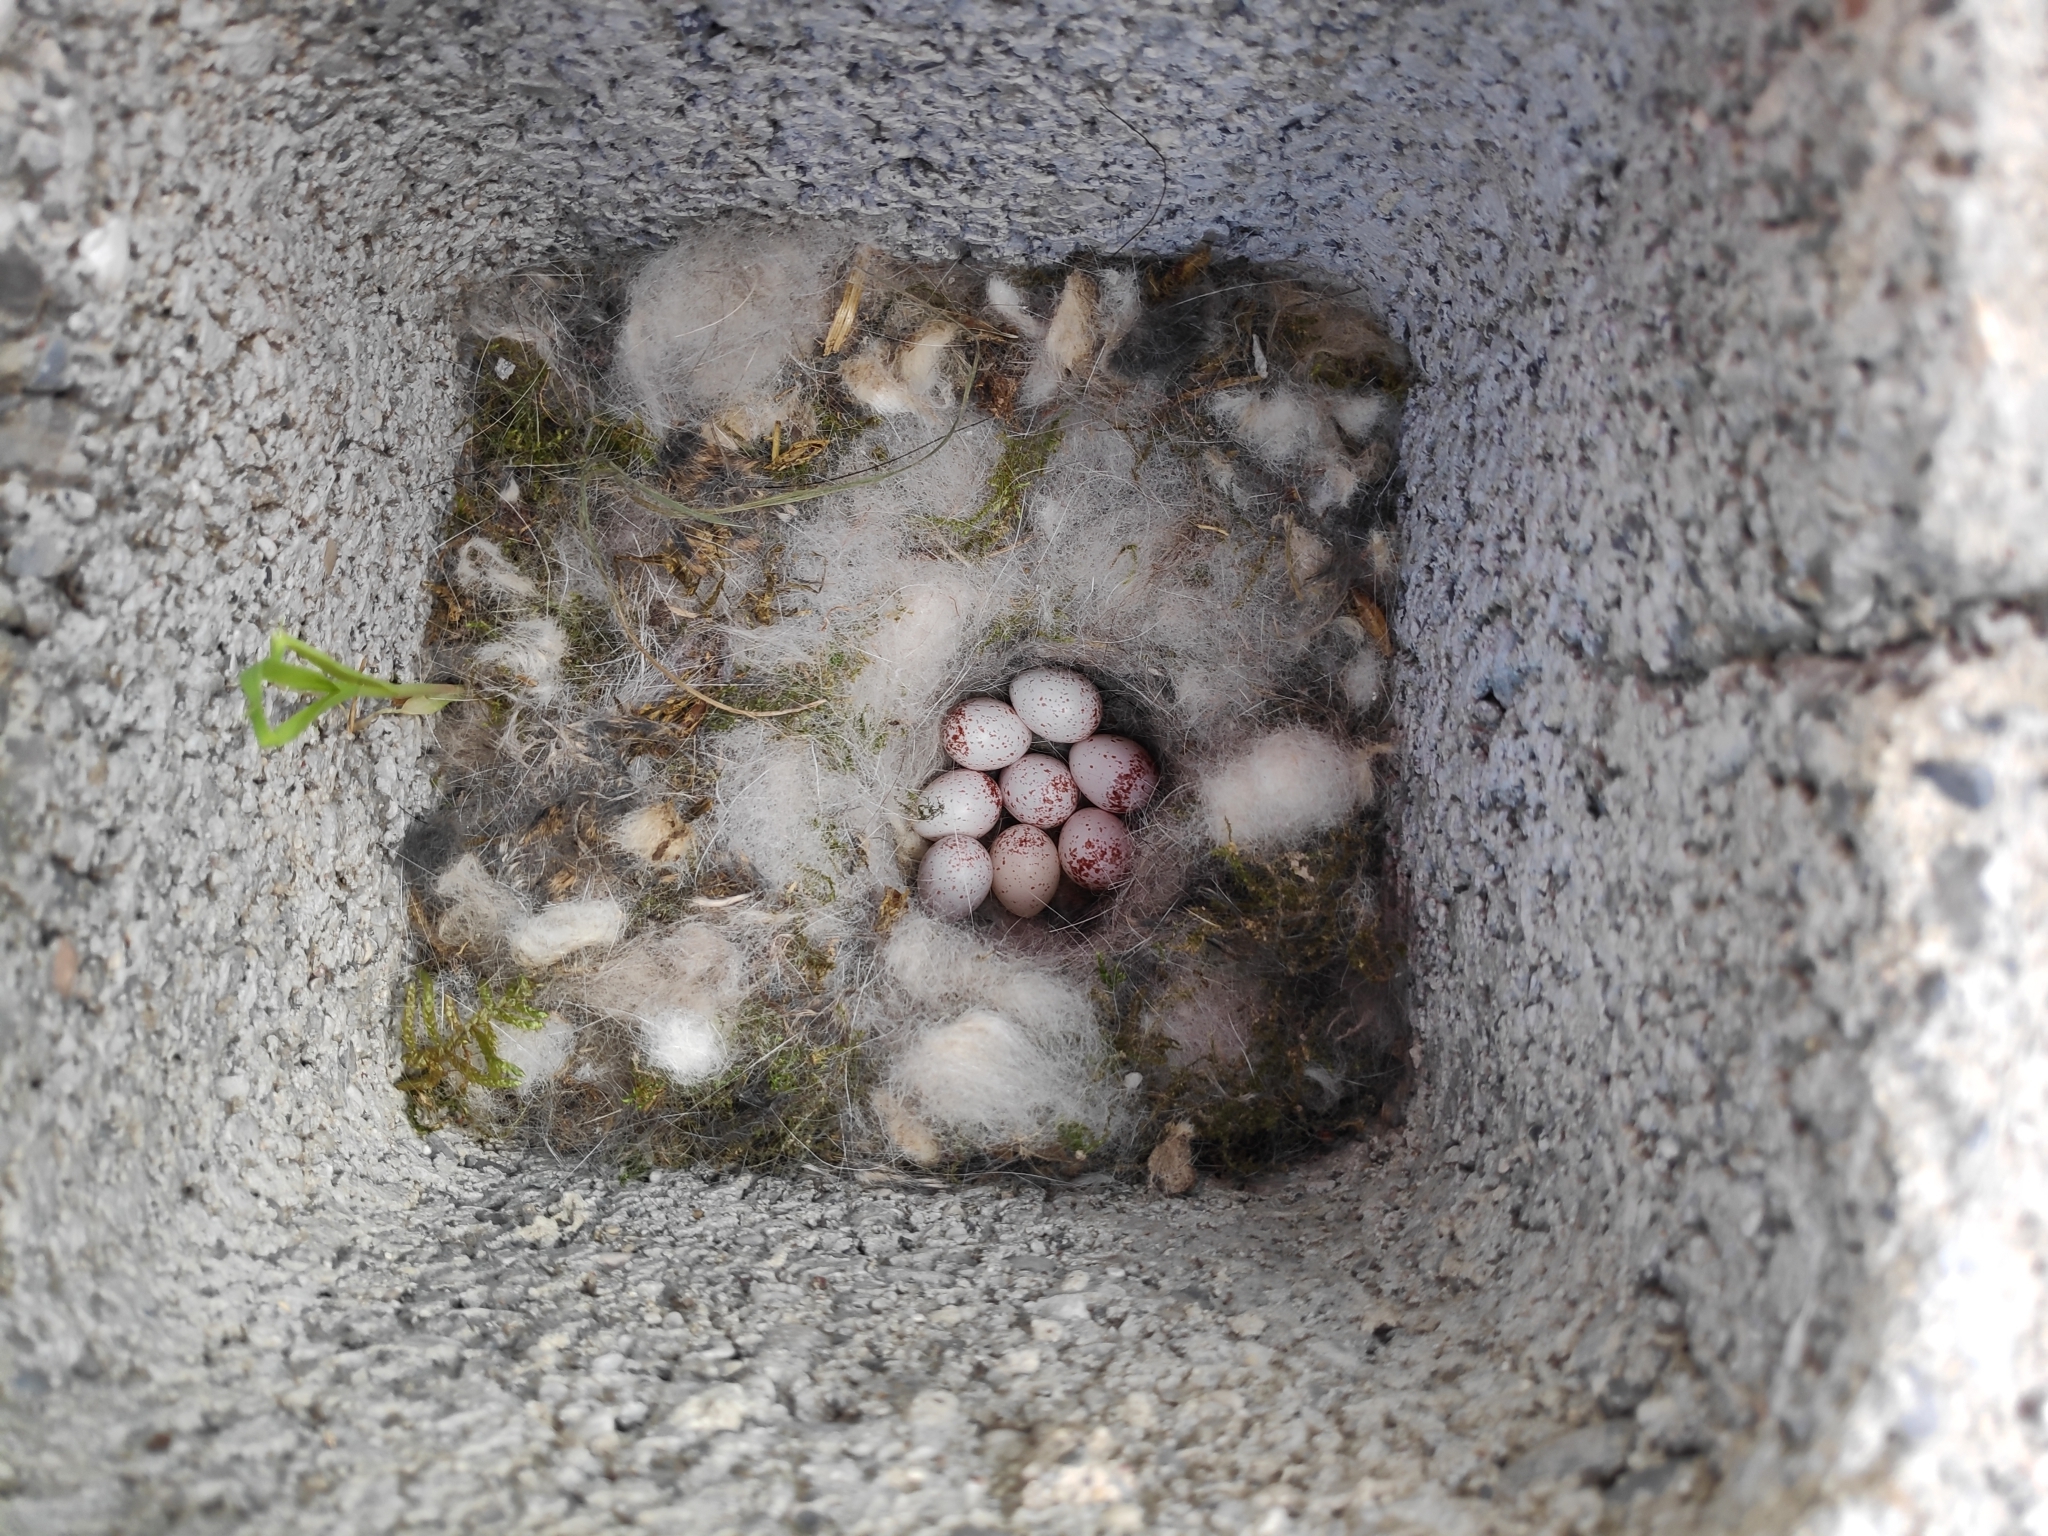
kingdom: Animalia
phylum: Chordata
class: Aves
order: Passeriformes
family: Paridae
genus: Parus
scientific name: Parus major
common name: Great tit
